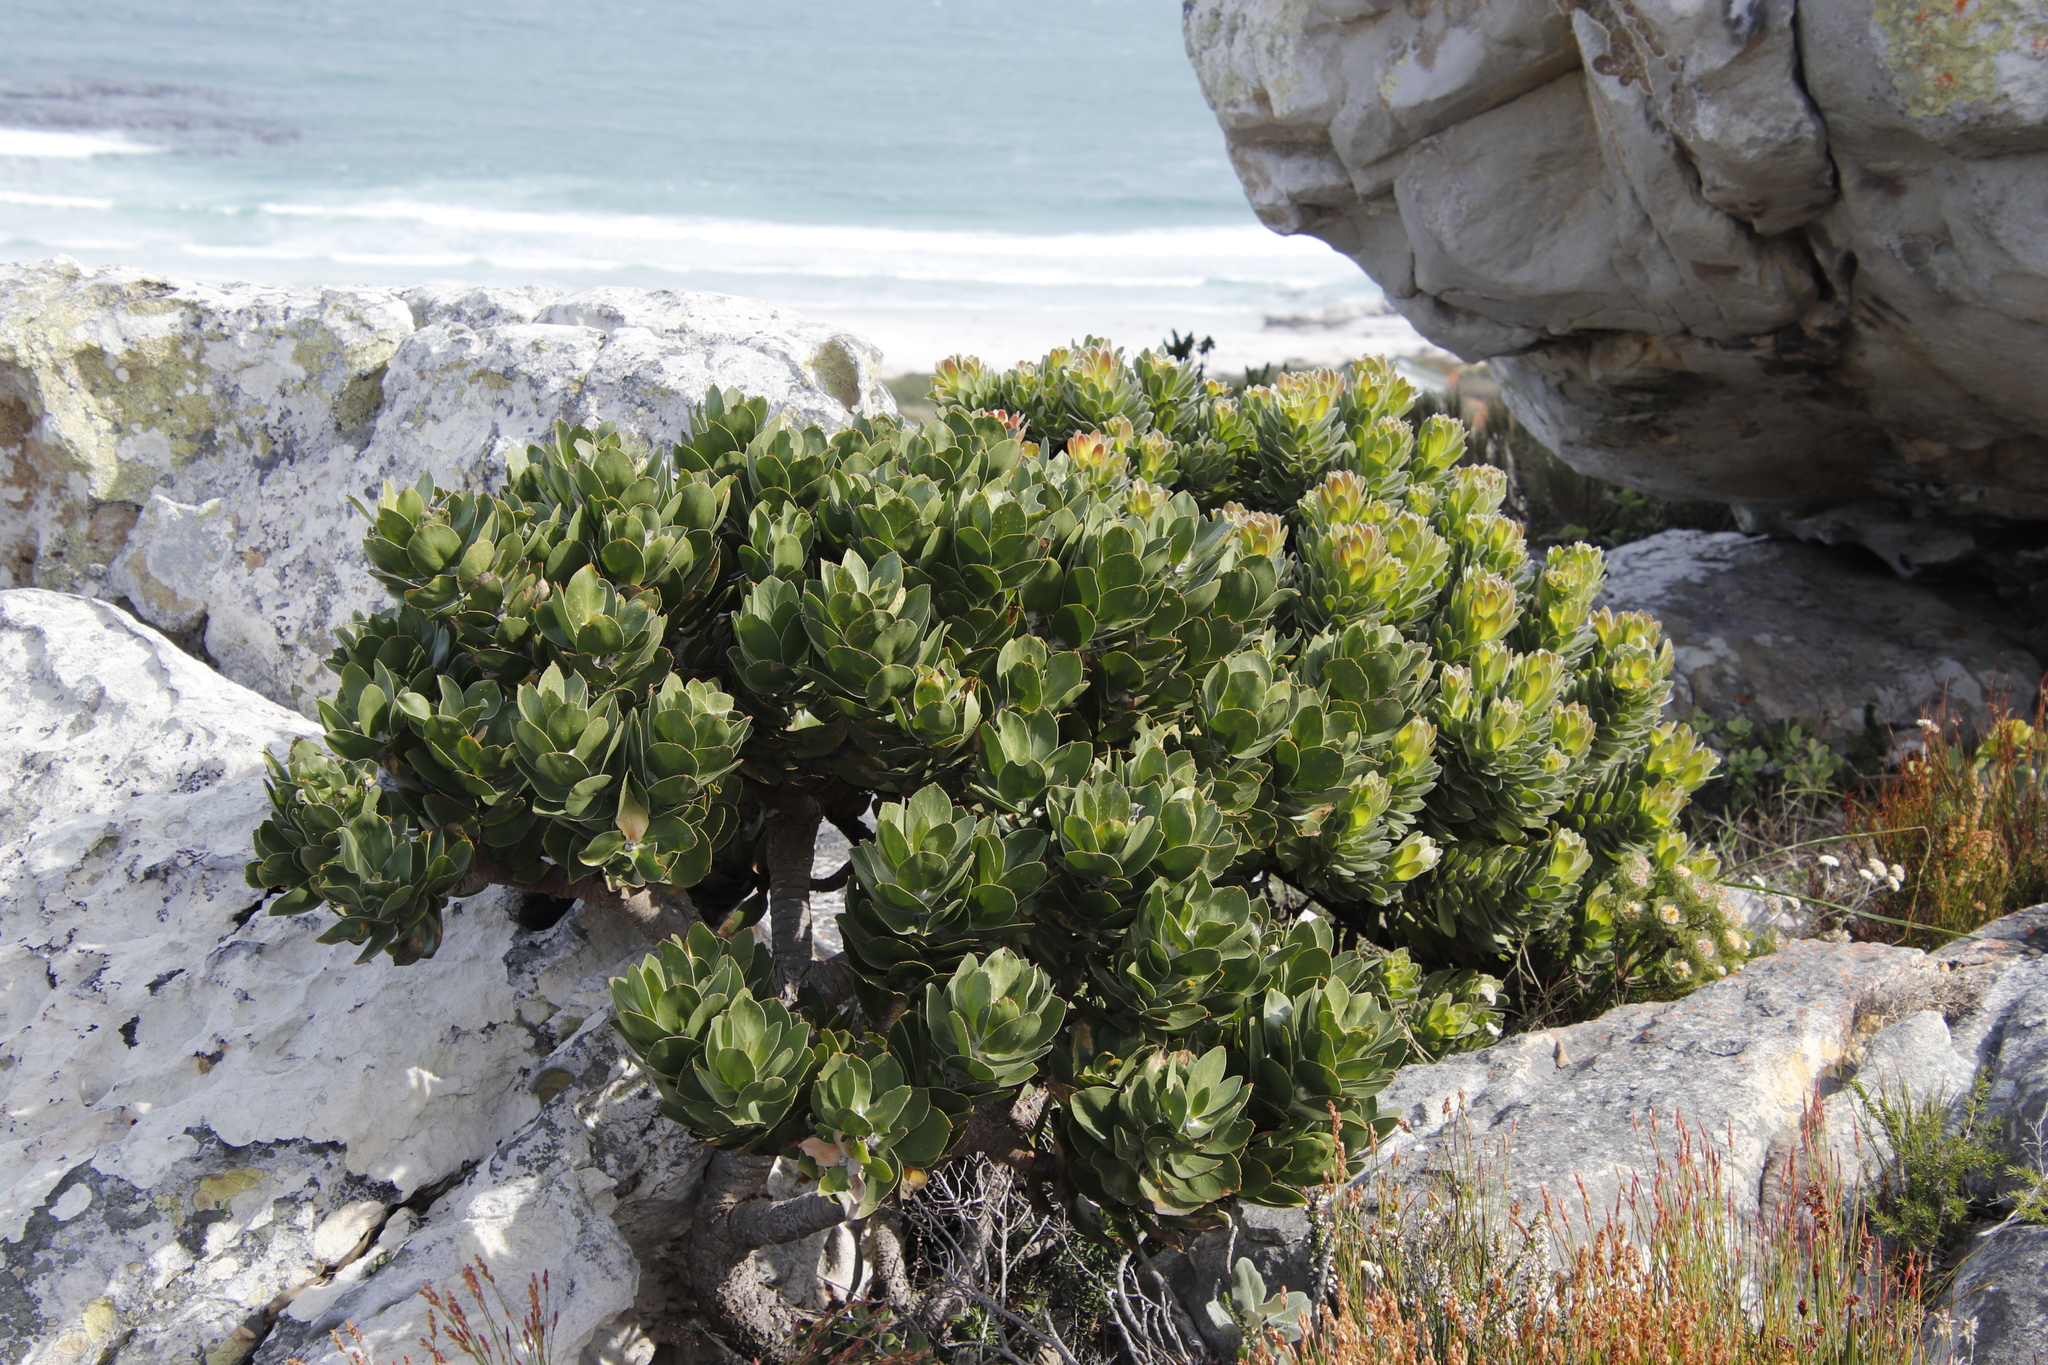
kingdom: Plantae
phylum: Tracheophyta
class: Magnoliopsida
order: Proteales
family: Proteaceae
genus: Leucospermum
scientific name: Leucospermum conocarpodendron
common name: Tree pincushion
